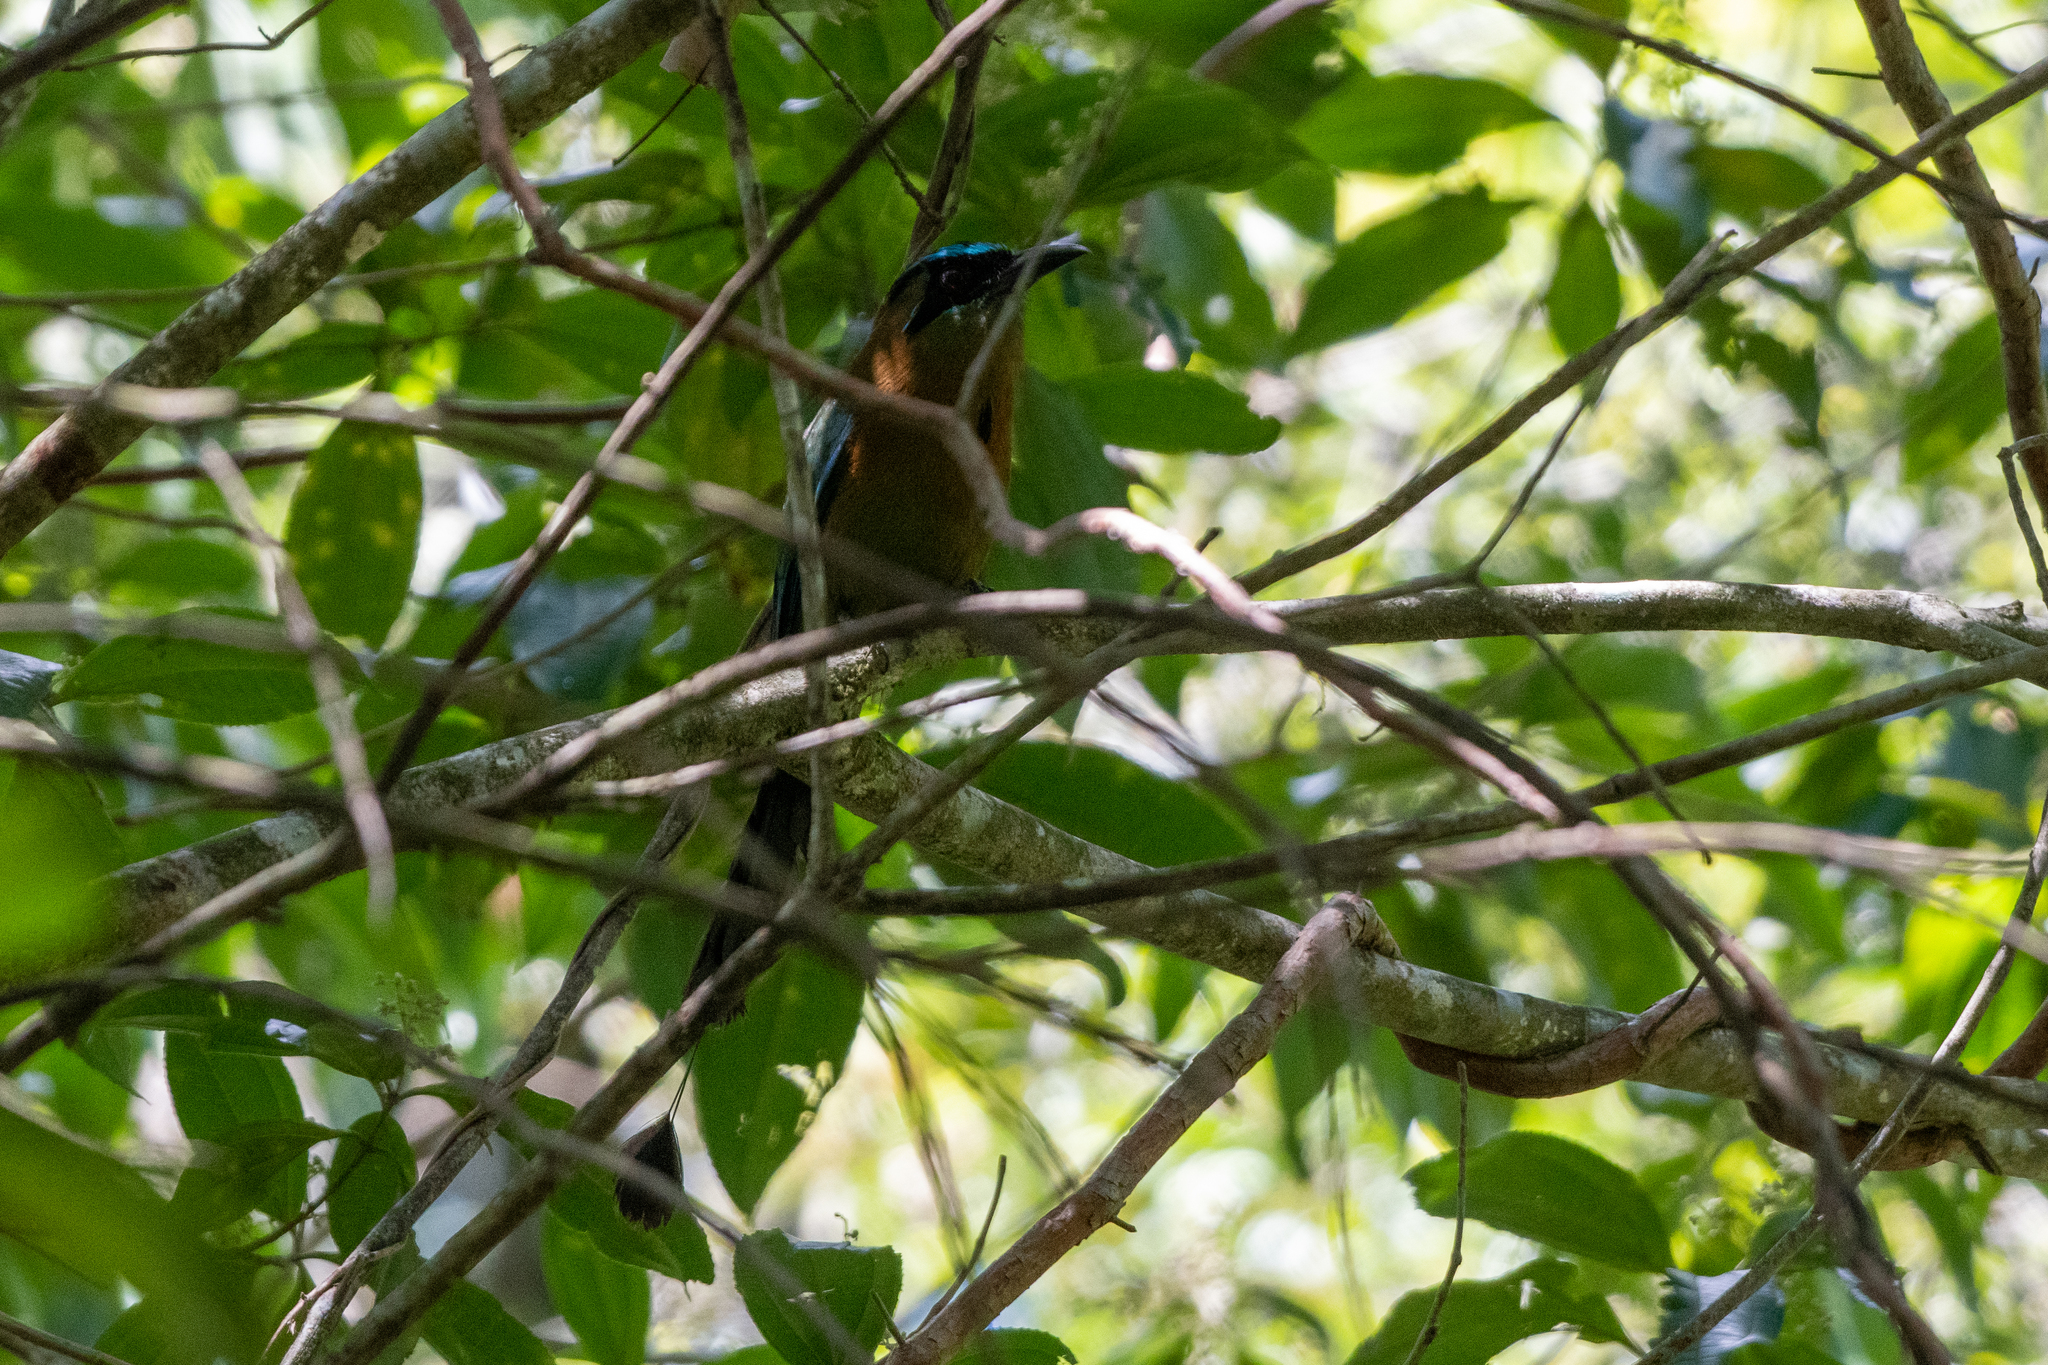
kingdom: Animalia
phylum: Chordata
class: Aves
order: Coraciiformes
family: Momotidae
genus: Momotus
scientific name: Momotus lessonii
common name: Lesson's motmot
